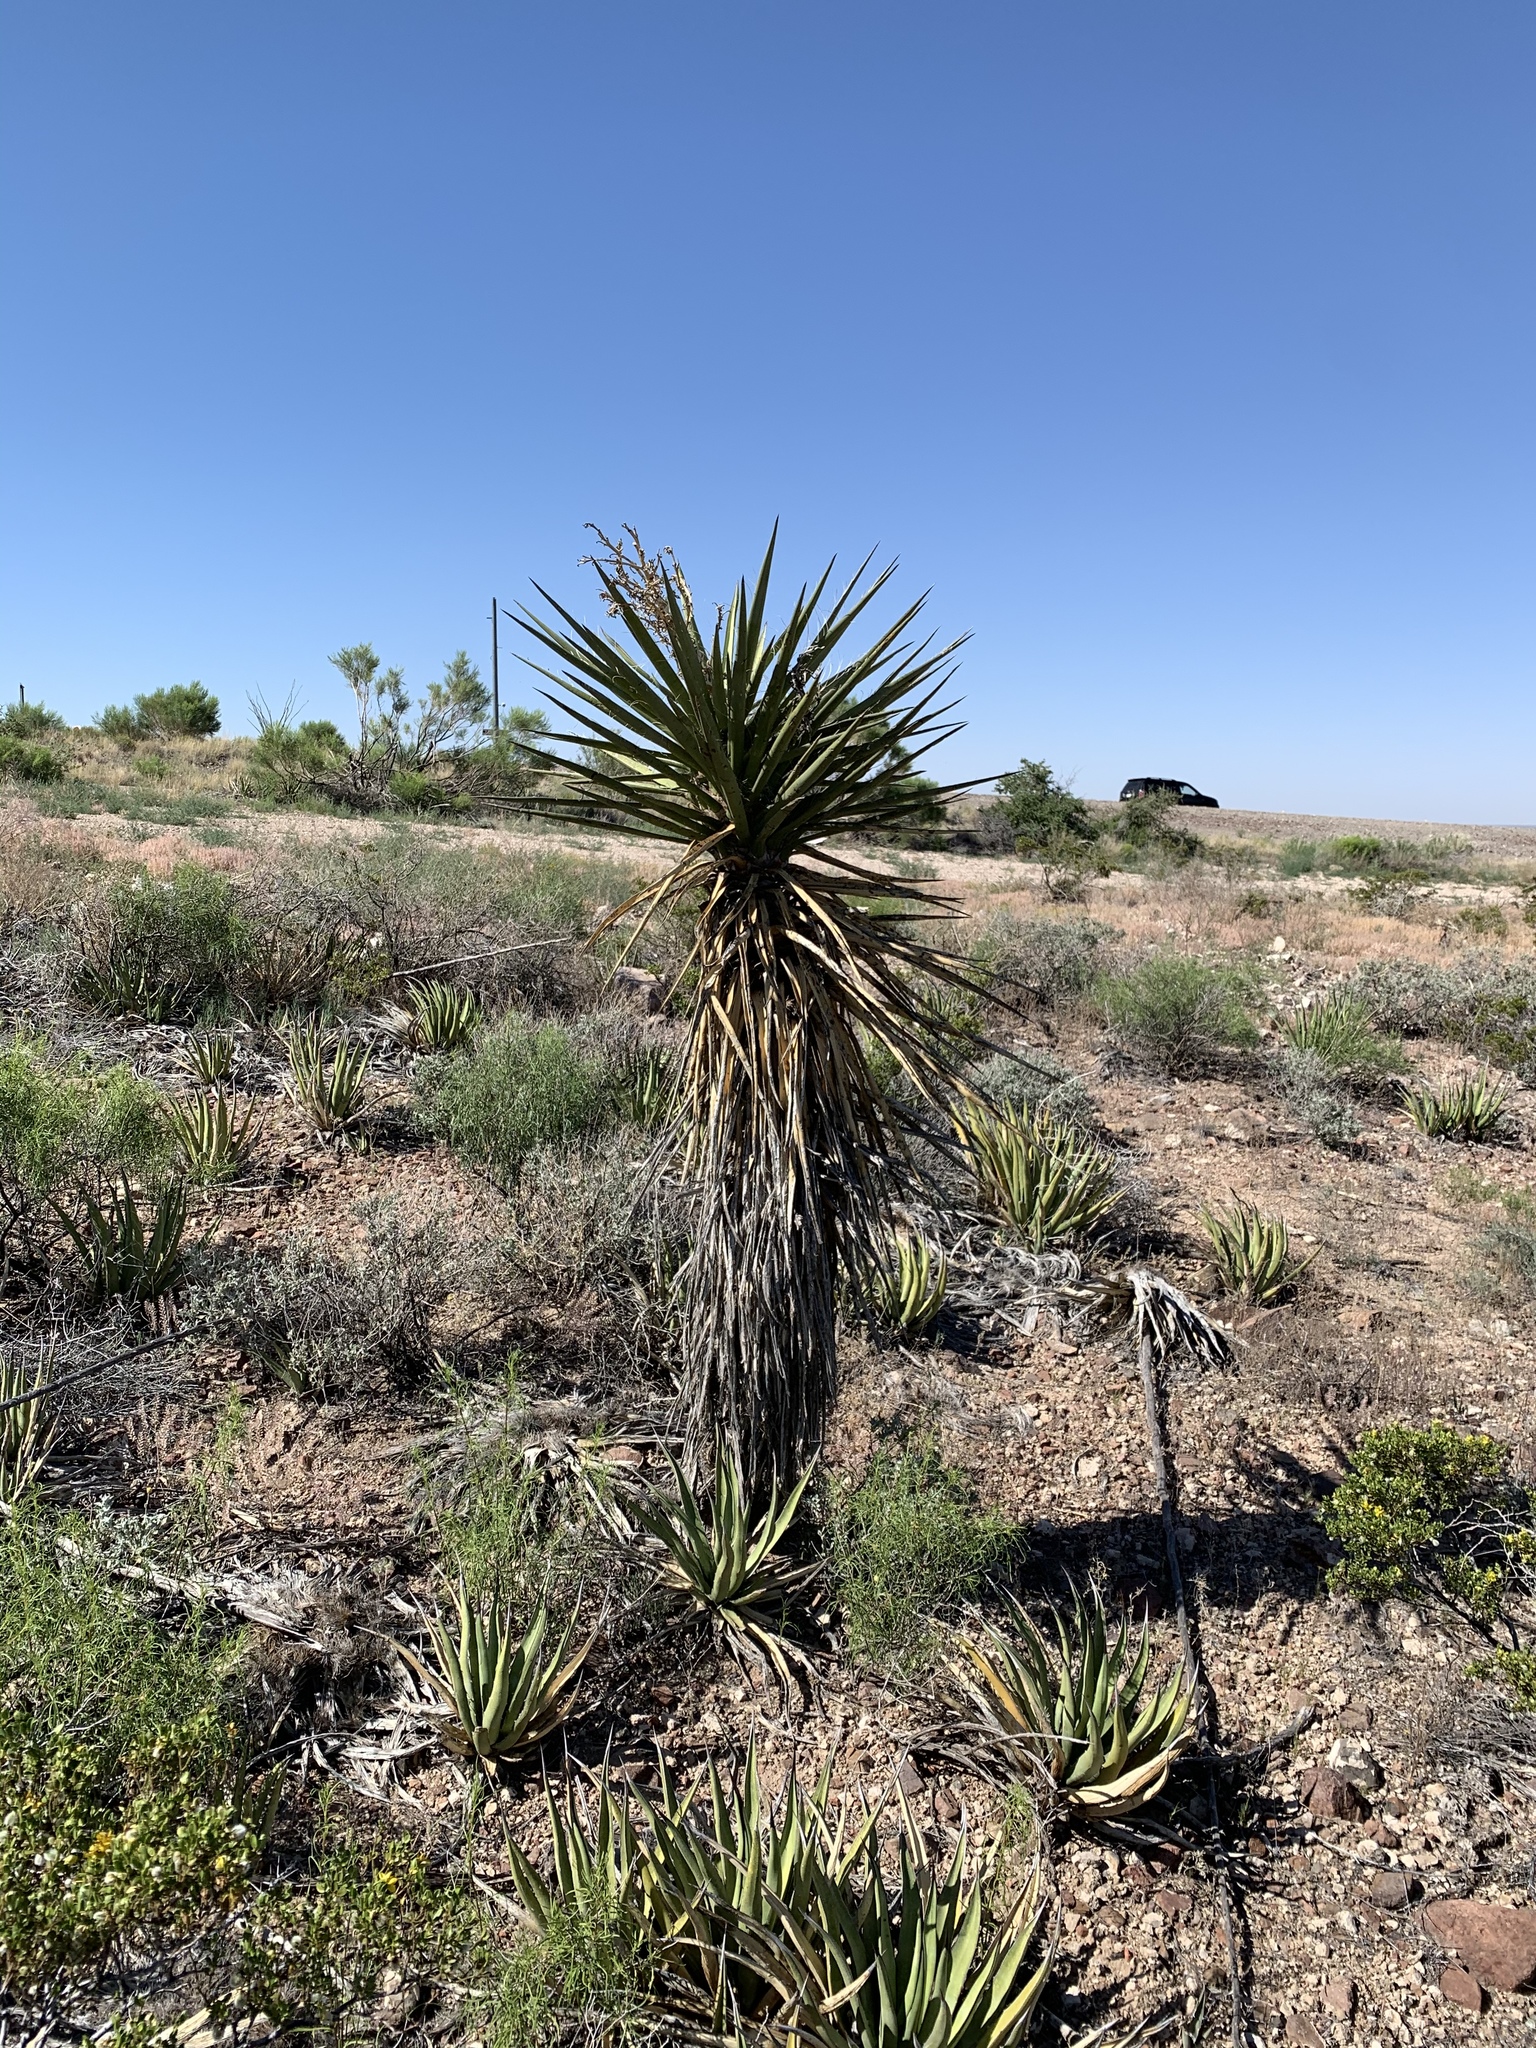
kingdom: Plantae
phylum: Tracheophyta
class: Liliopsida
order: Asparagales
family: Asparagaceae
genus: Yucca
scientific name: Yucca treculiana
